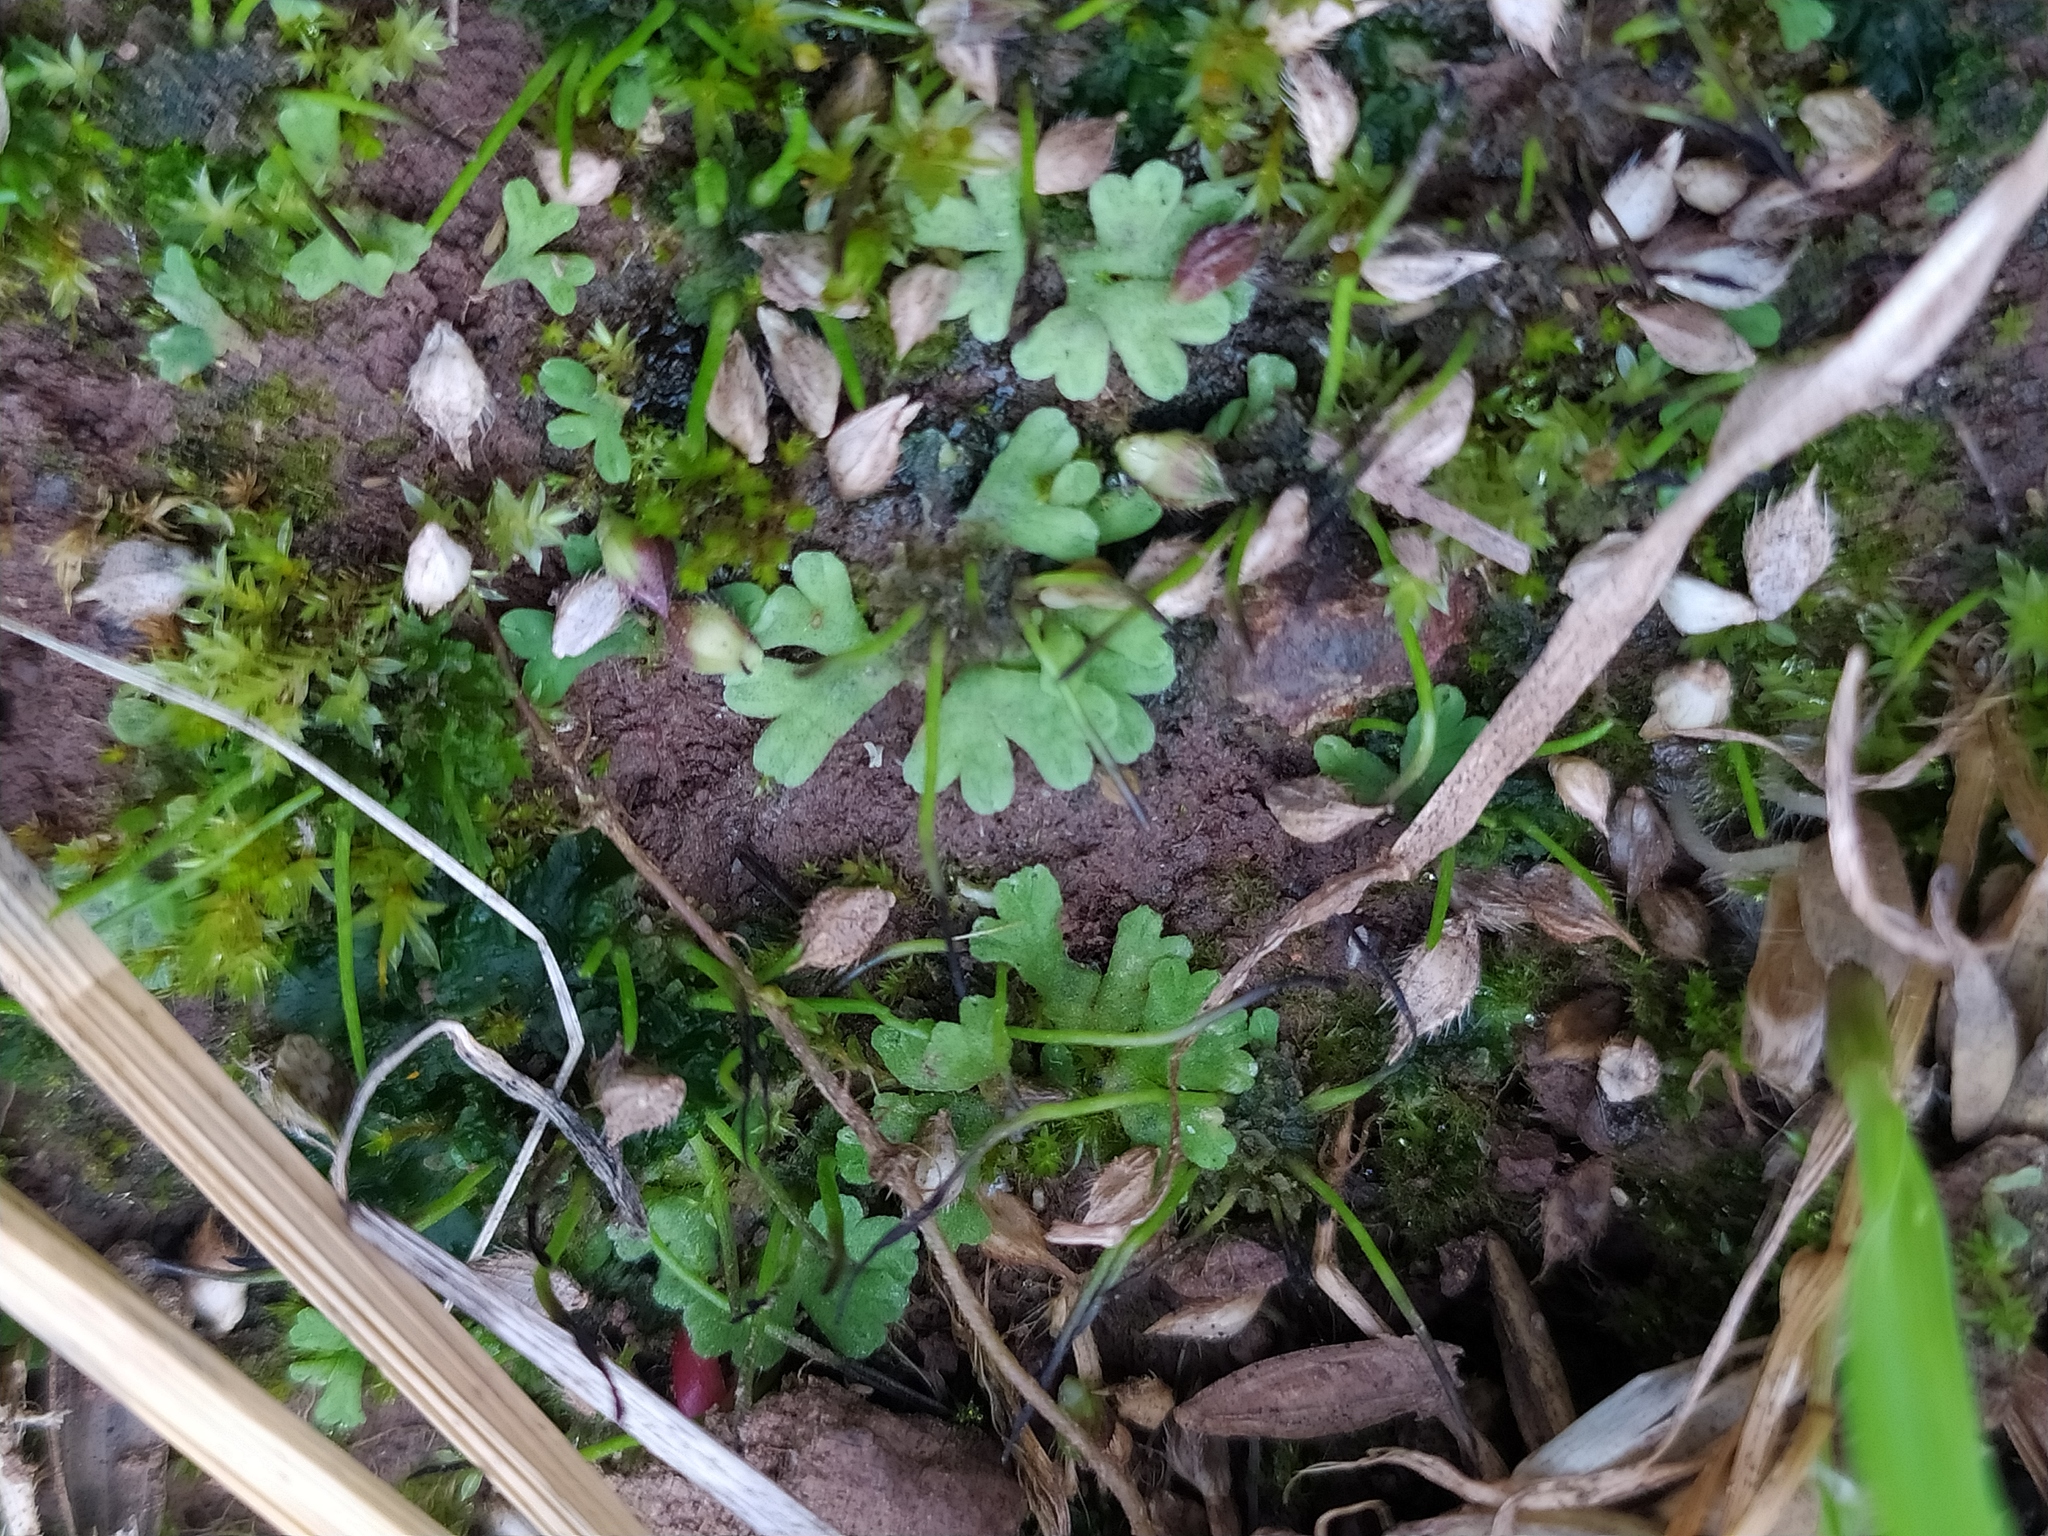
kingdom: Plantae
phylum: Marchantiophyta
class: Marchantiopsida
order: Marchantiales
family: Ricciaceae
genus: Riccia
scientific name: Riccia glauca
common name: Glaucous crystalwort
